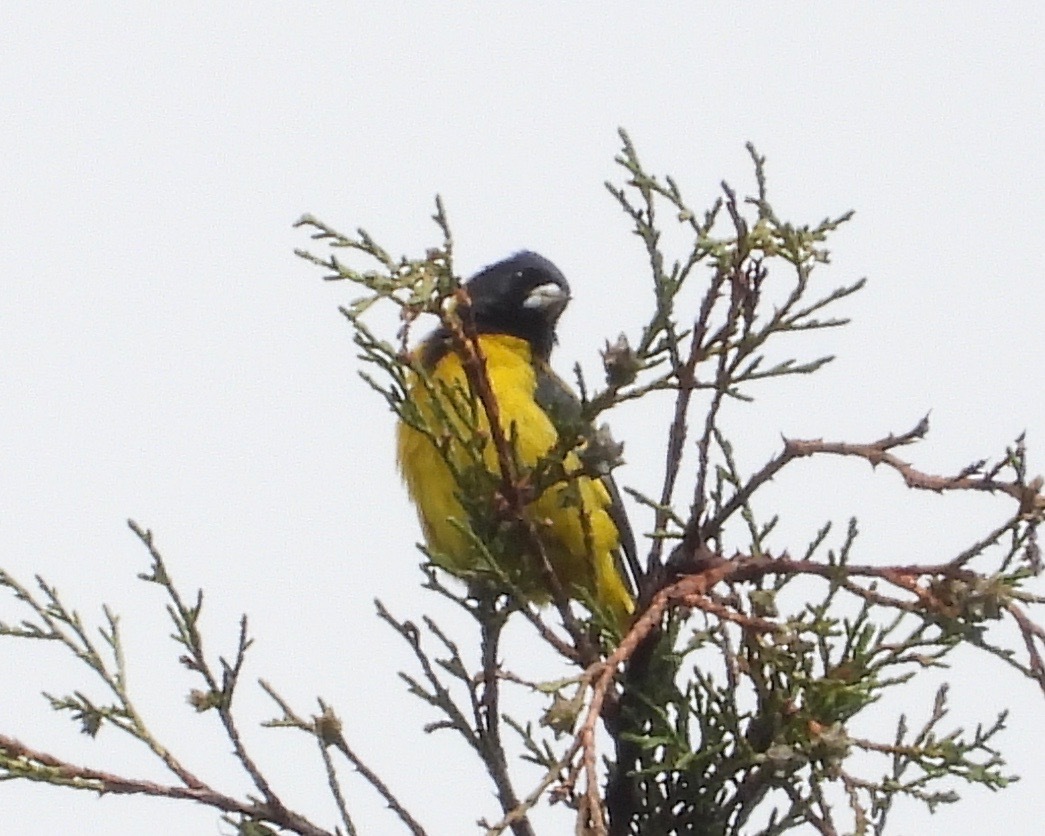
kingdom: Animalia
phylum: Chordata
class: Aves
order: Passeriformes
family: Fringillidae
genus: Spinus
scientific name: Spinus notatus
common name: Black-headed siskin
